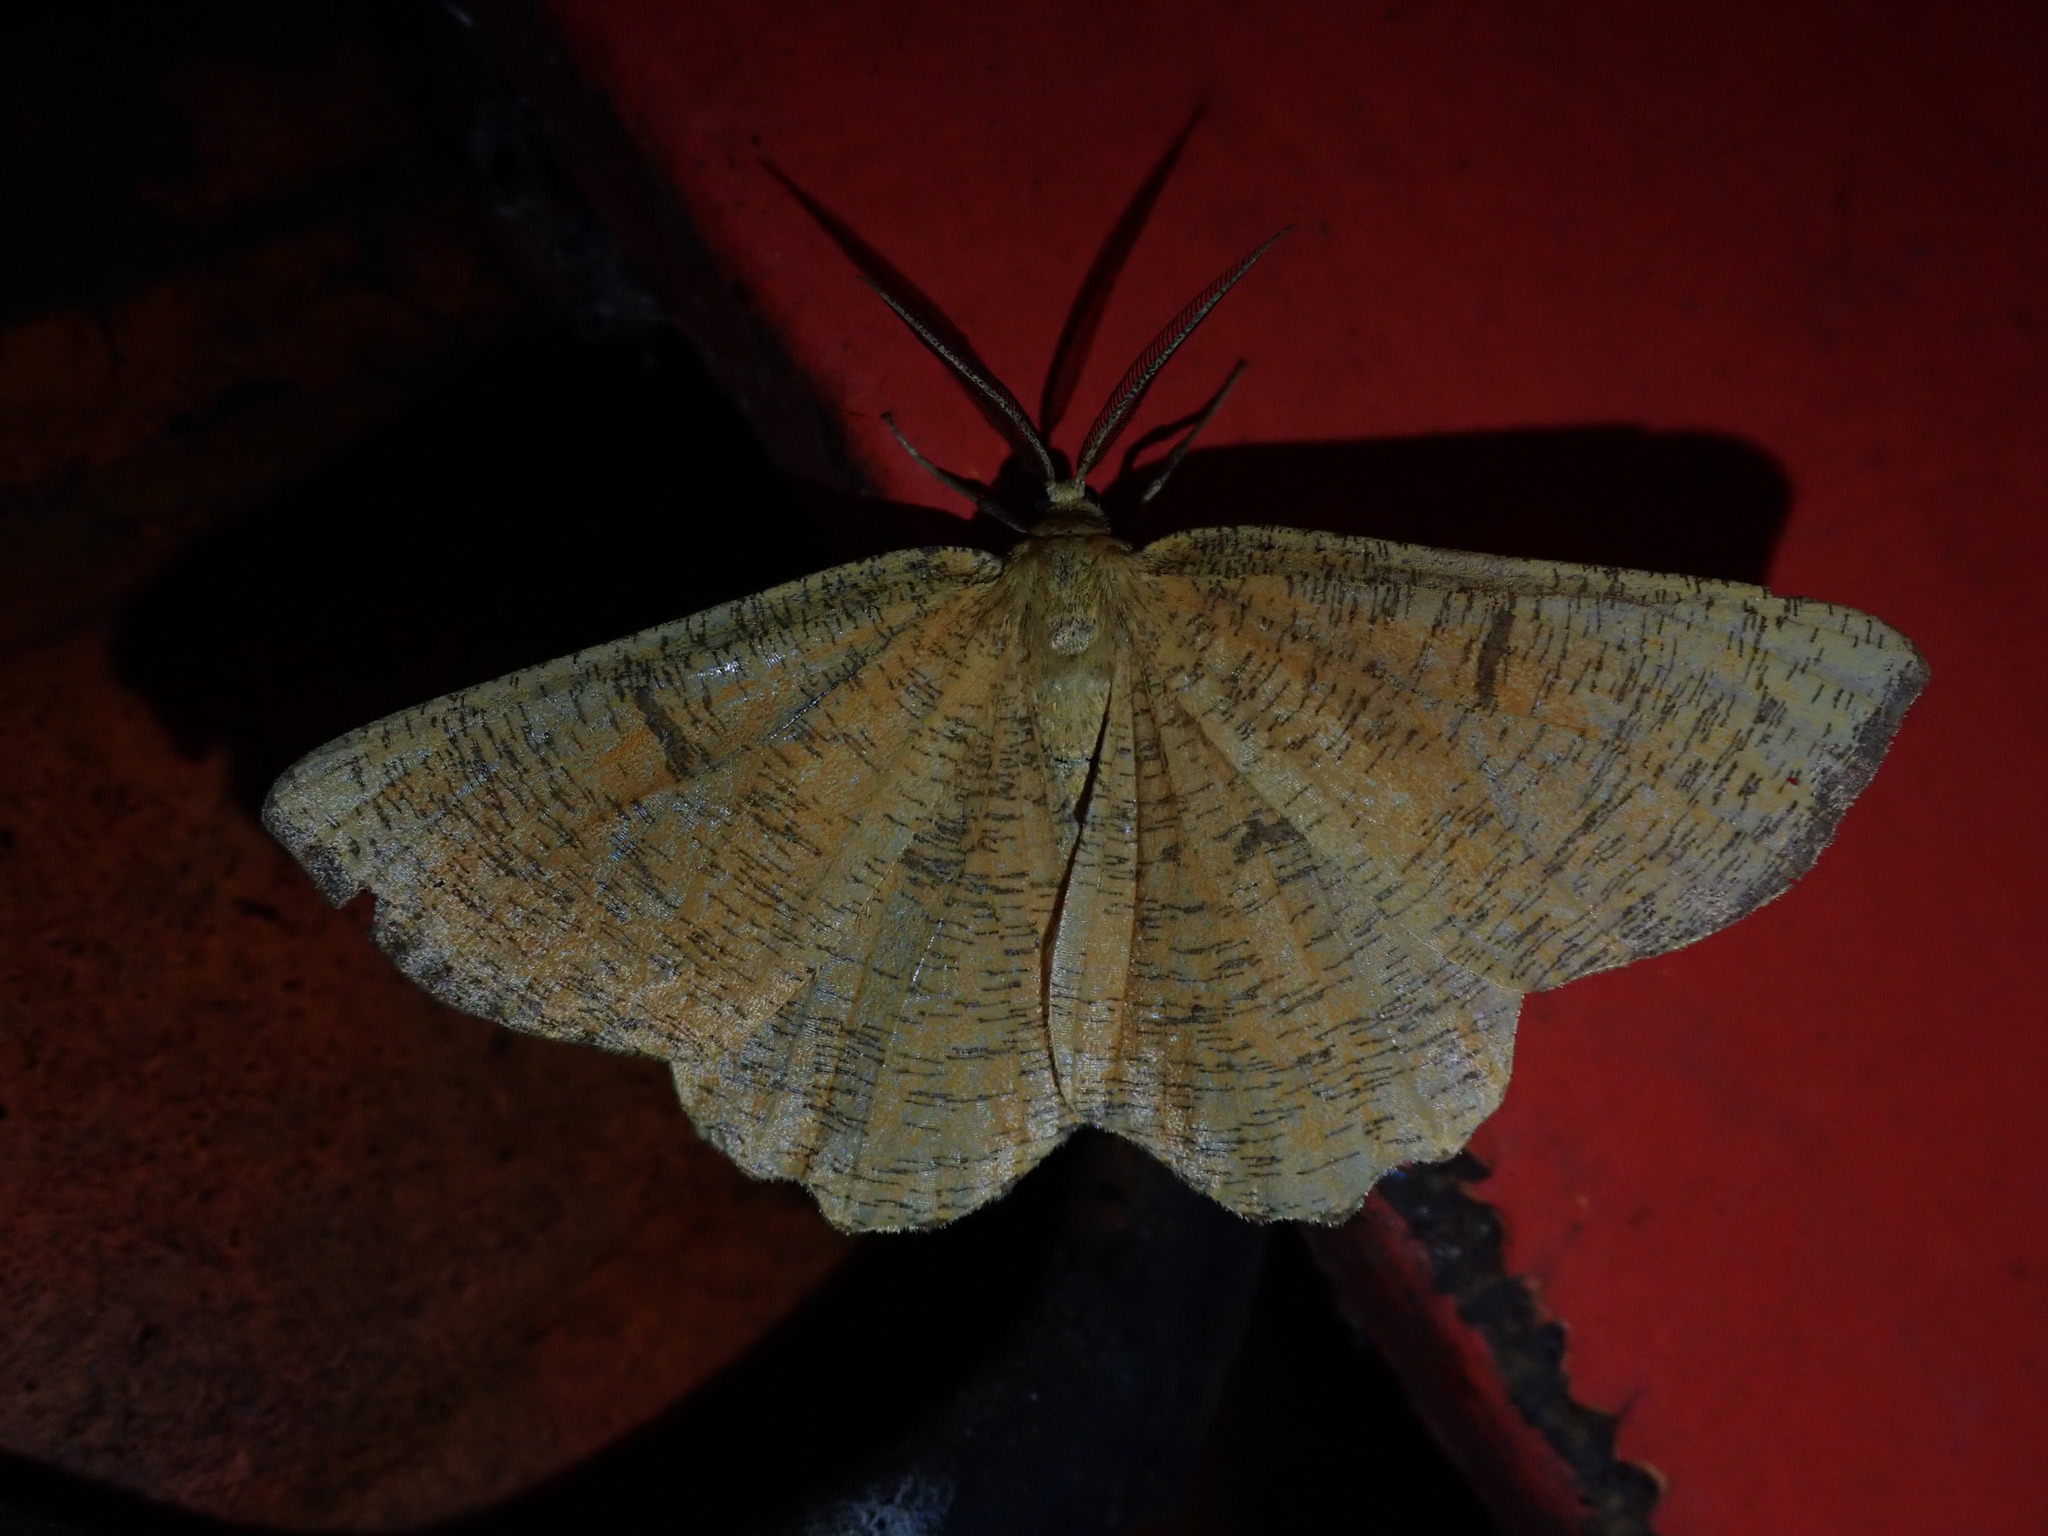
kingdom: Animalia
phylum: Arthropoda
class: Insecta
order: Lepidoptera
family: Geometridae
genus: Angerona
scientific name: Angerona prunaria
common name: Orange moth
